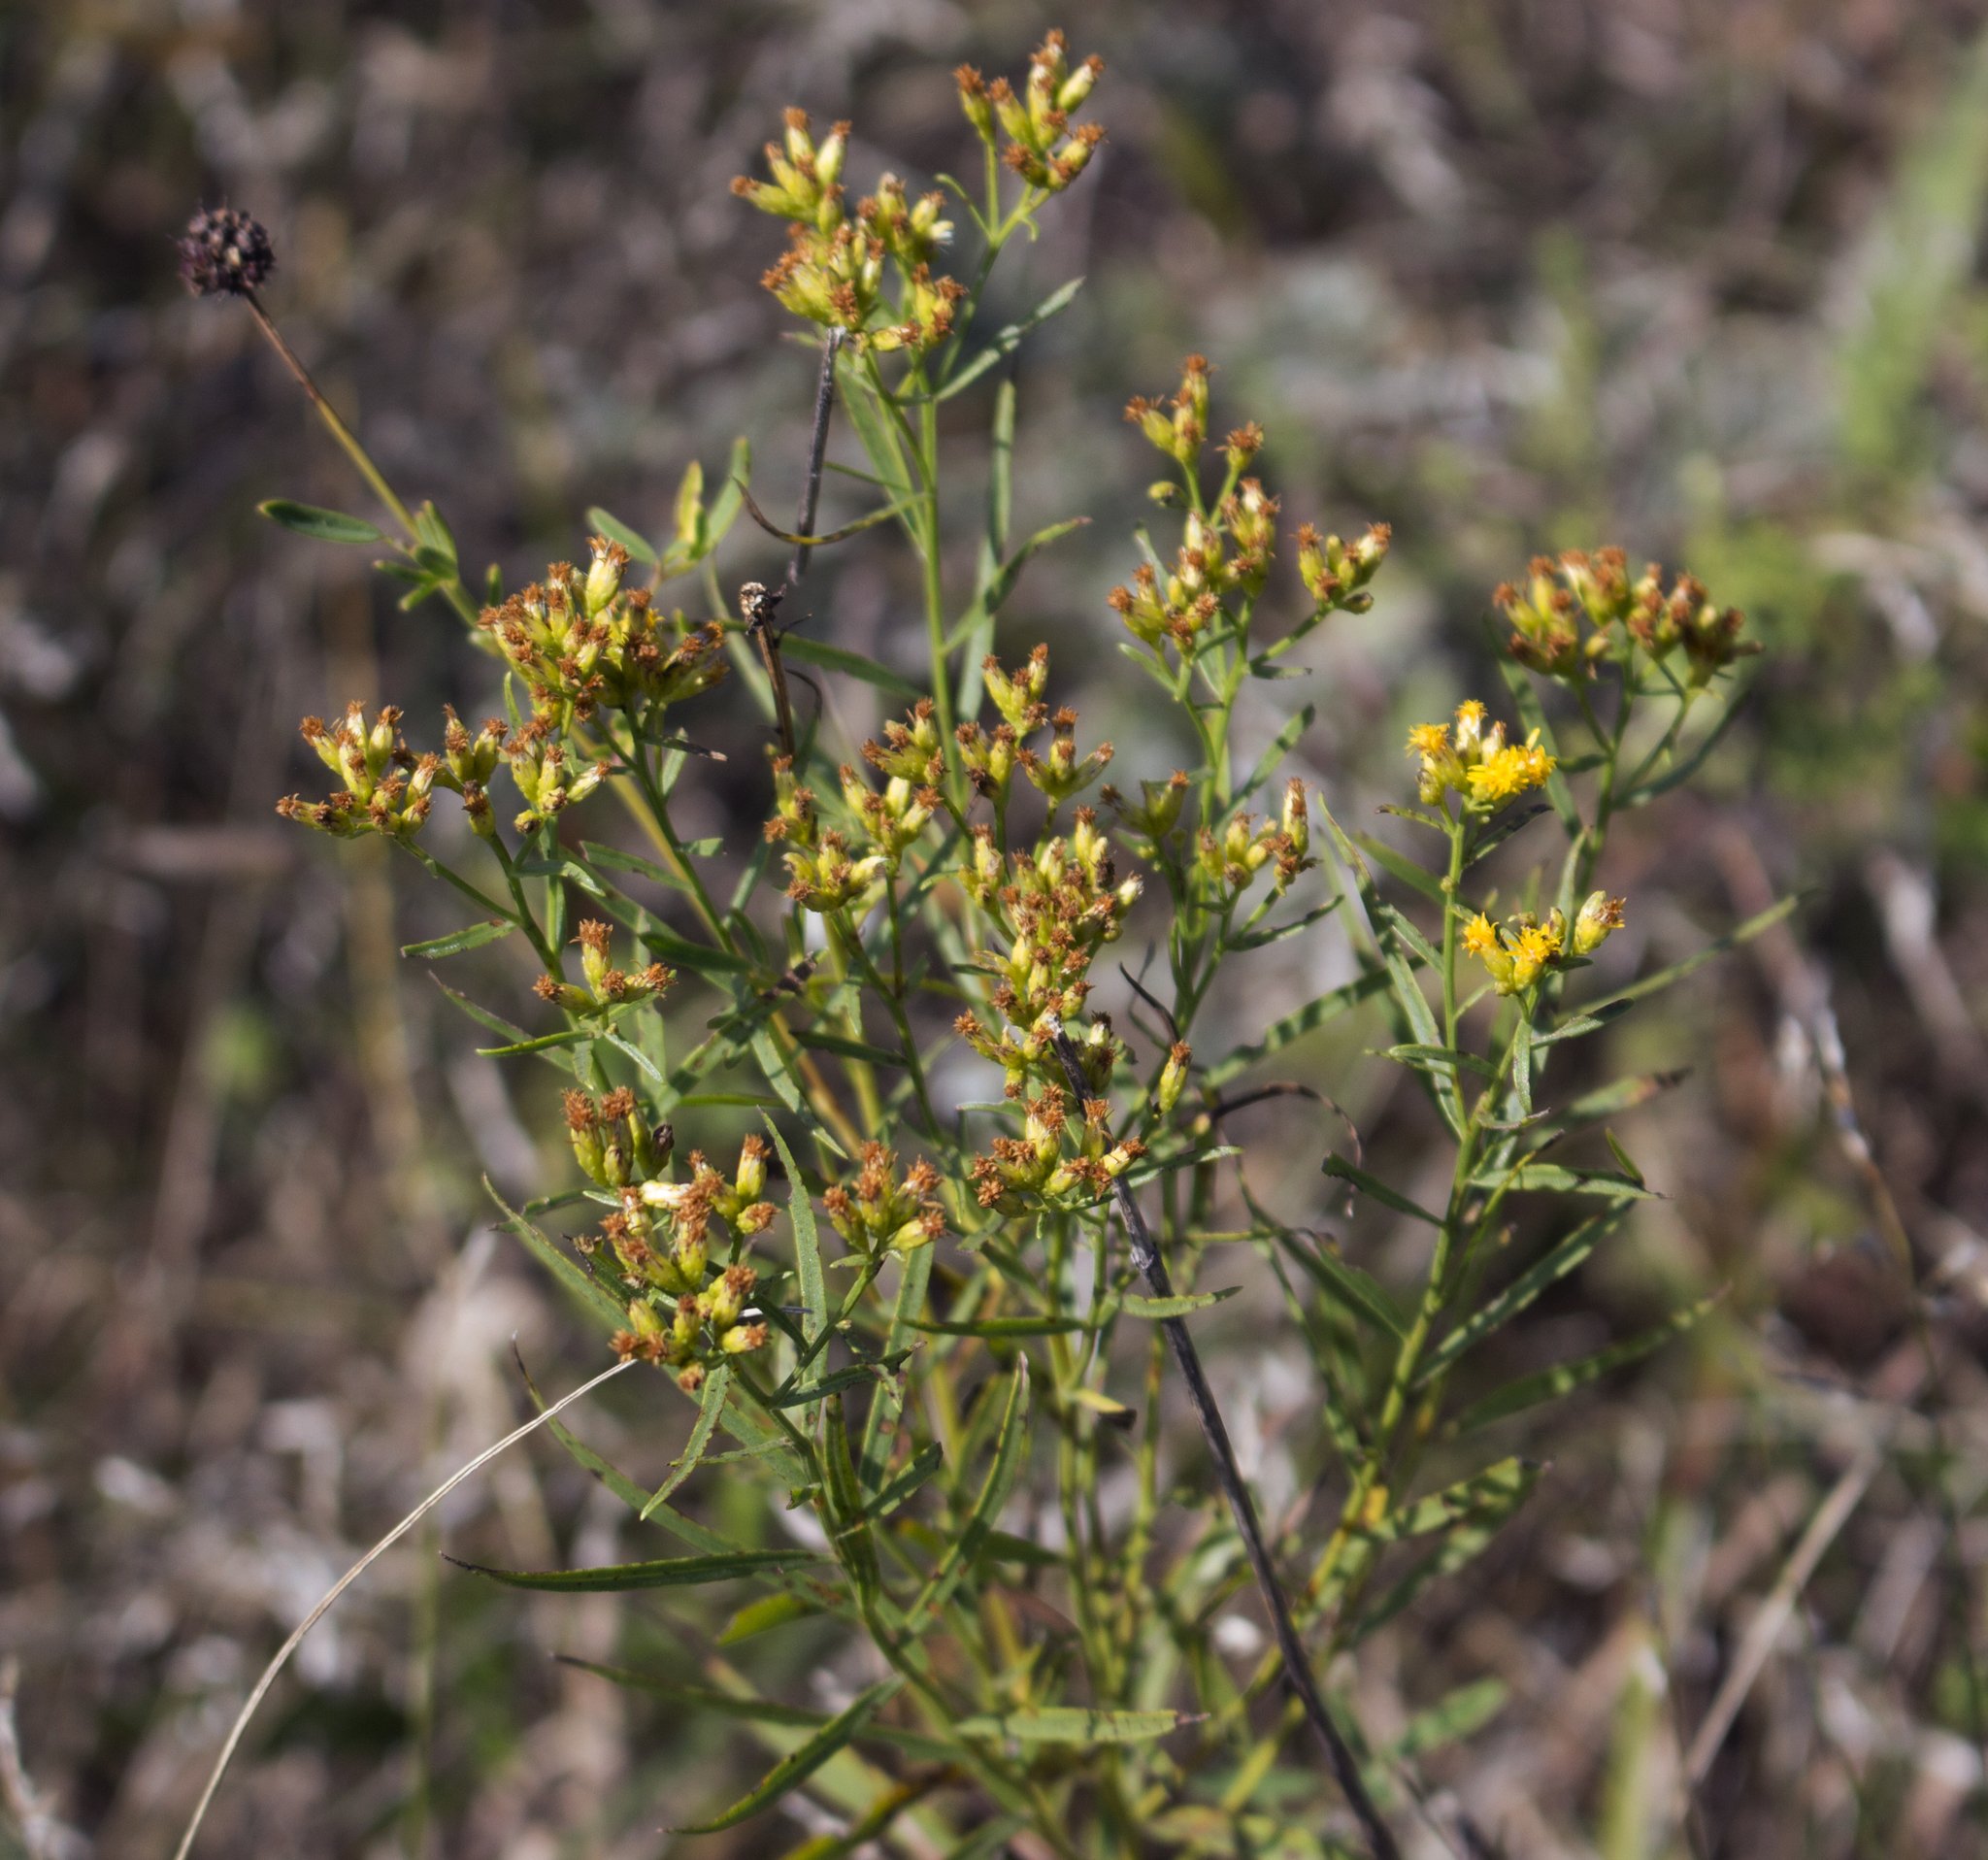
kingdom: Plantae
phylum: Tracheophyta
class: Magnoliopsida
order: Asterales
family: Asteraceae
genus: Euthamia
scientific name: Euthamia graminifolia
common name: Common goldentop
